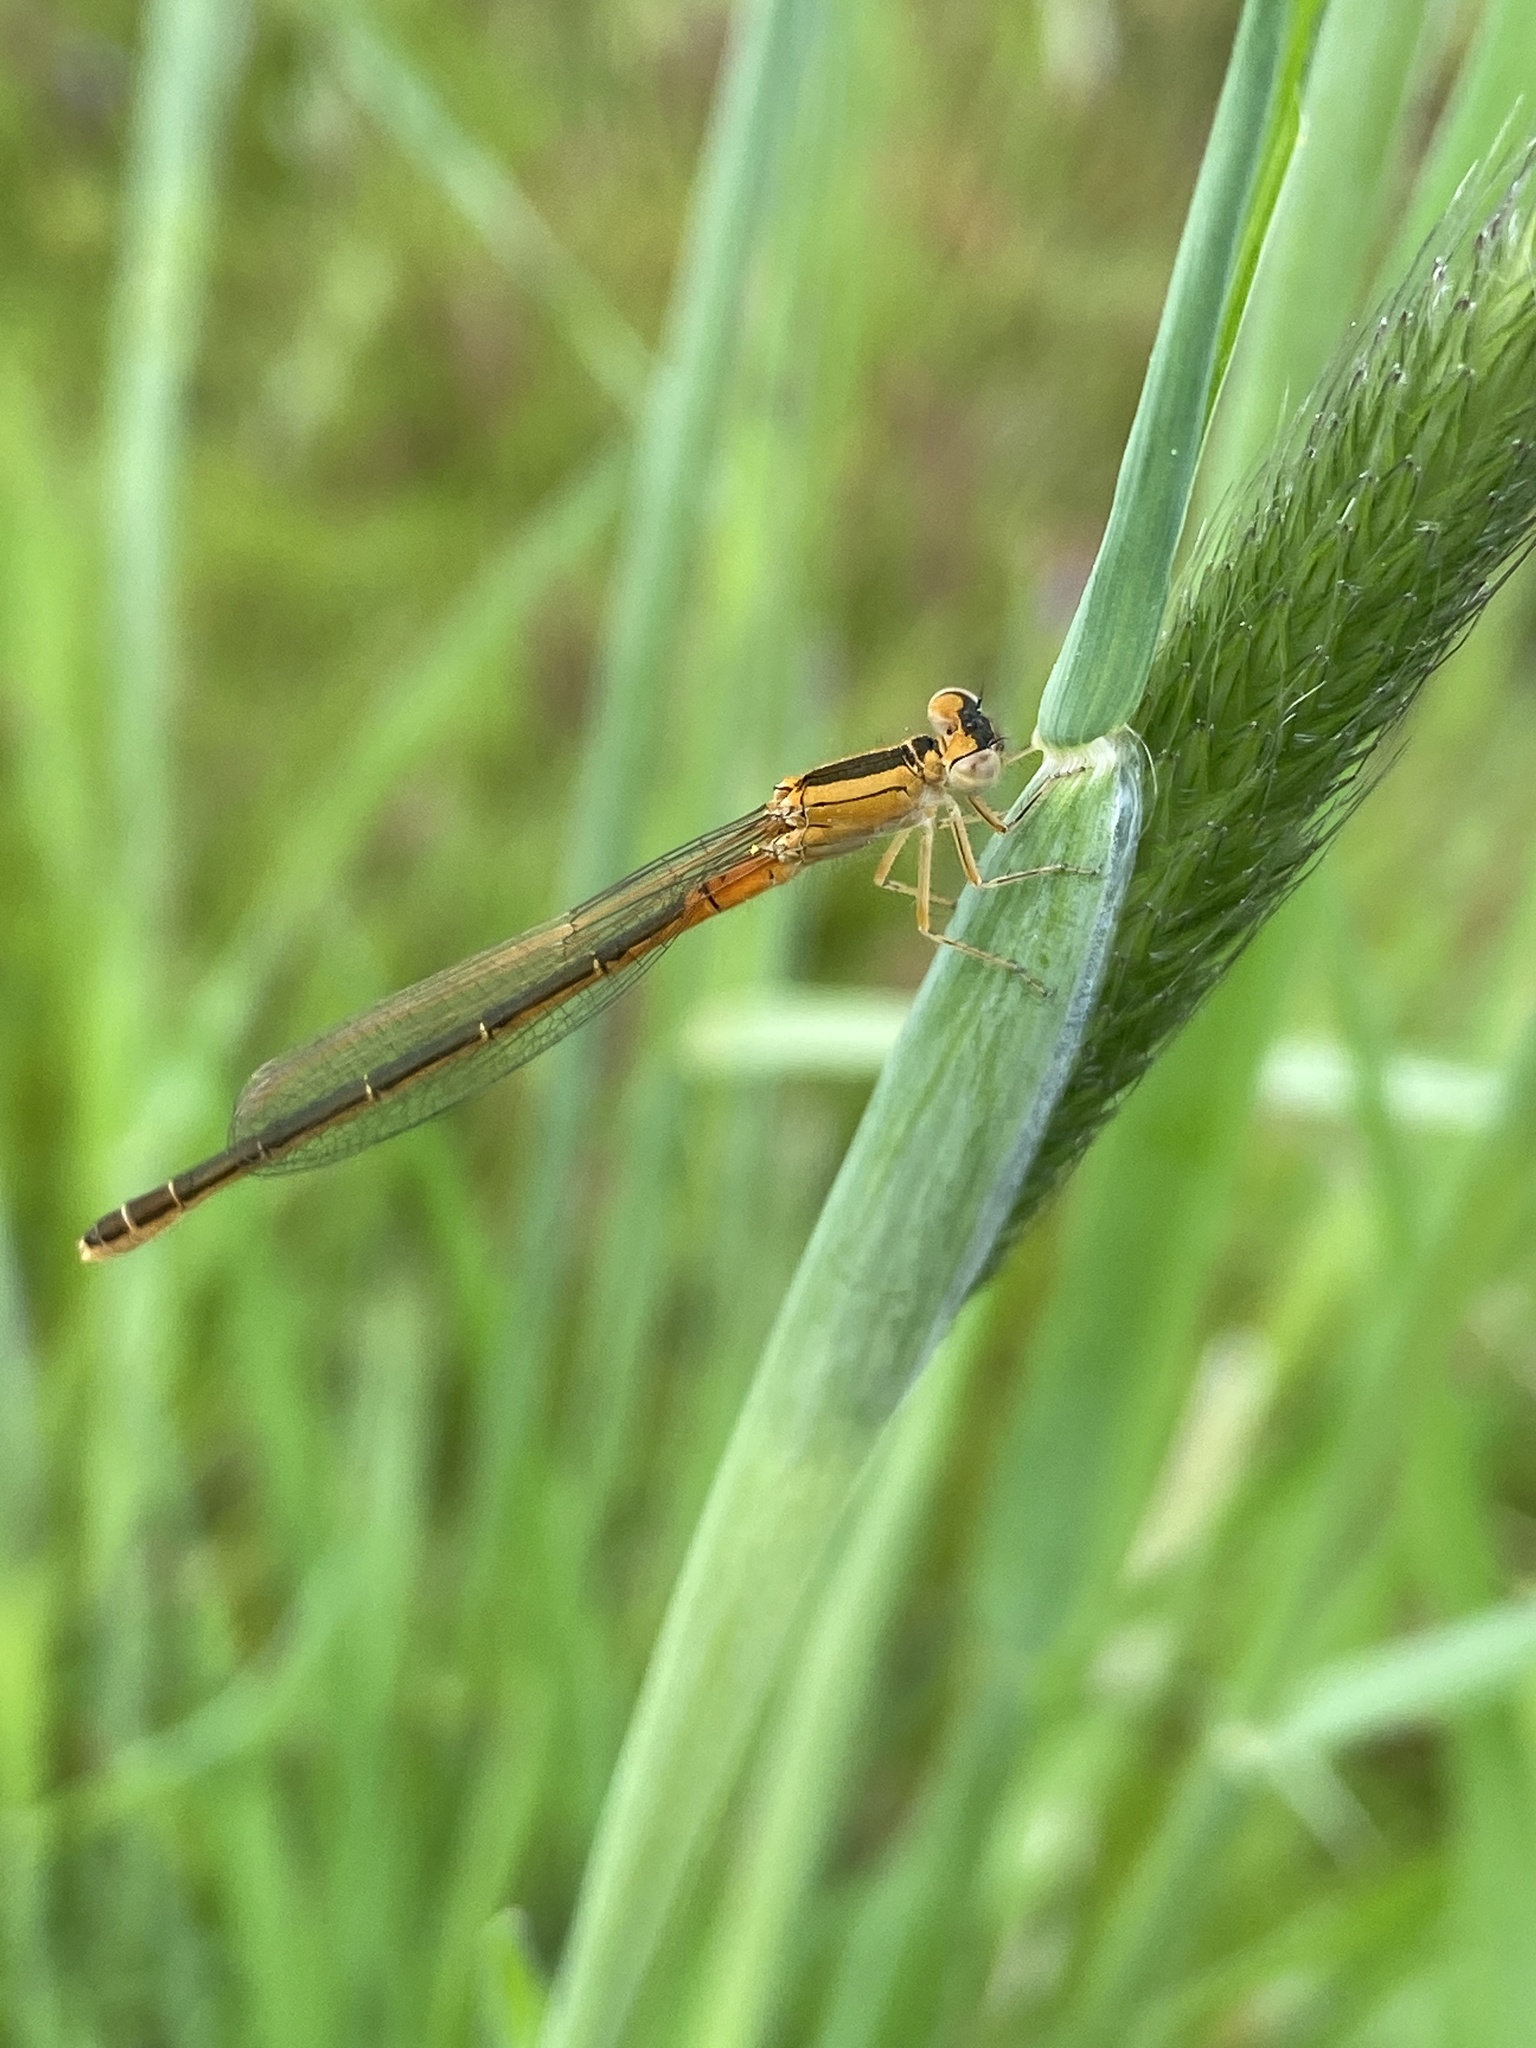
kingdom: Animalia
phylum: Arthropoda
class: Insecta
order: Odonata
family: Coenagrionidae
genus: Ischnura
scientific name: Ischnura pumilio
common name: Scarce blue-tailed damselfly
